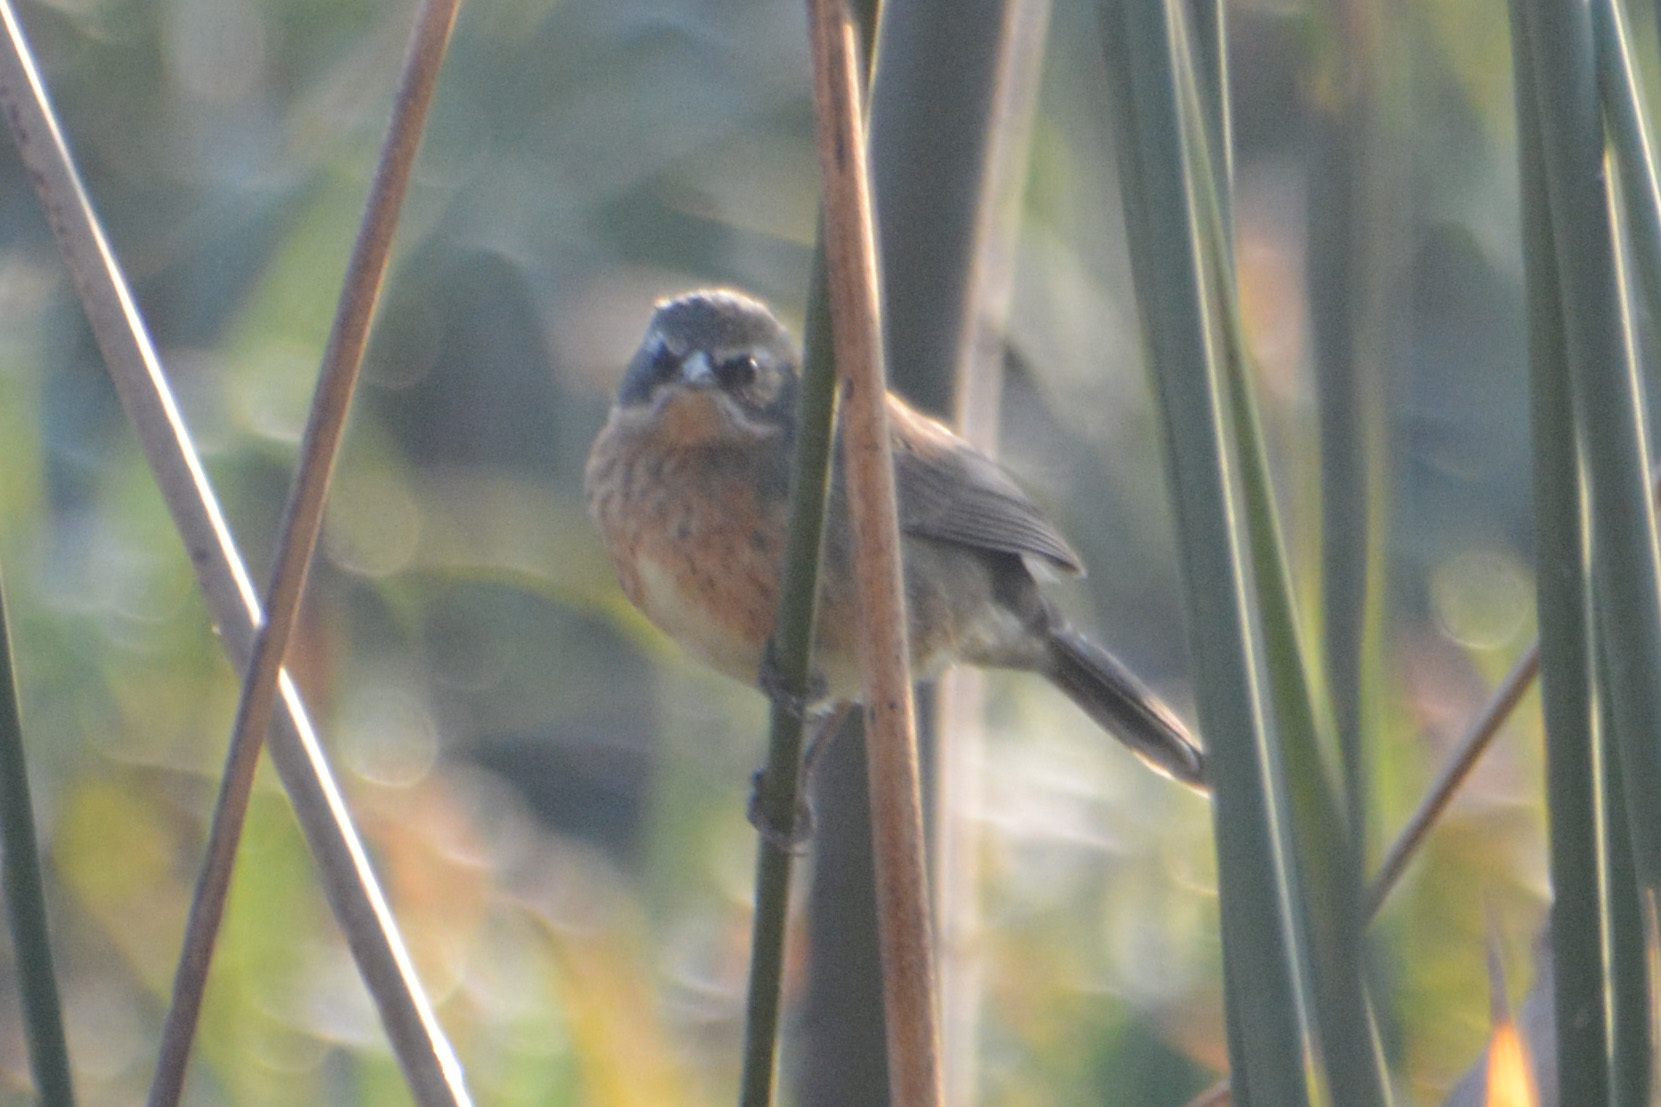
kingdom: Animalia
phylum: Chordata
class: Aves
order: Passeriformes
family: Thraupidae
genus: Poospiza
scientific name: Poospiza nigrorufa
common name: Black-and-rufous warbling finch
